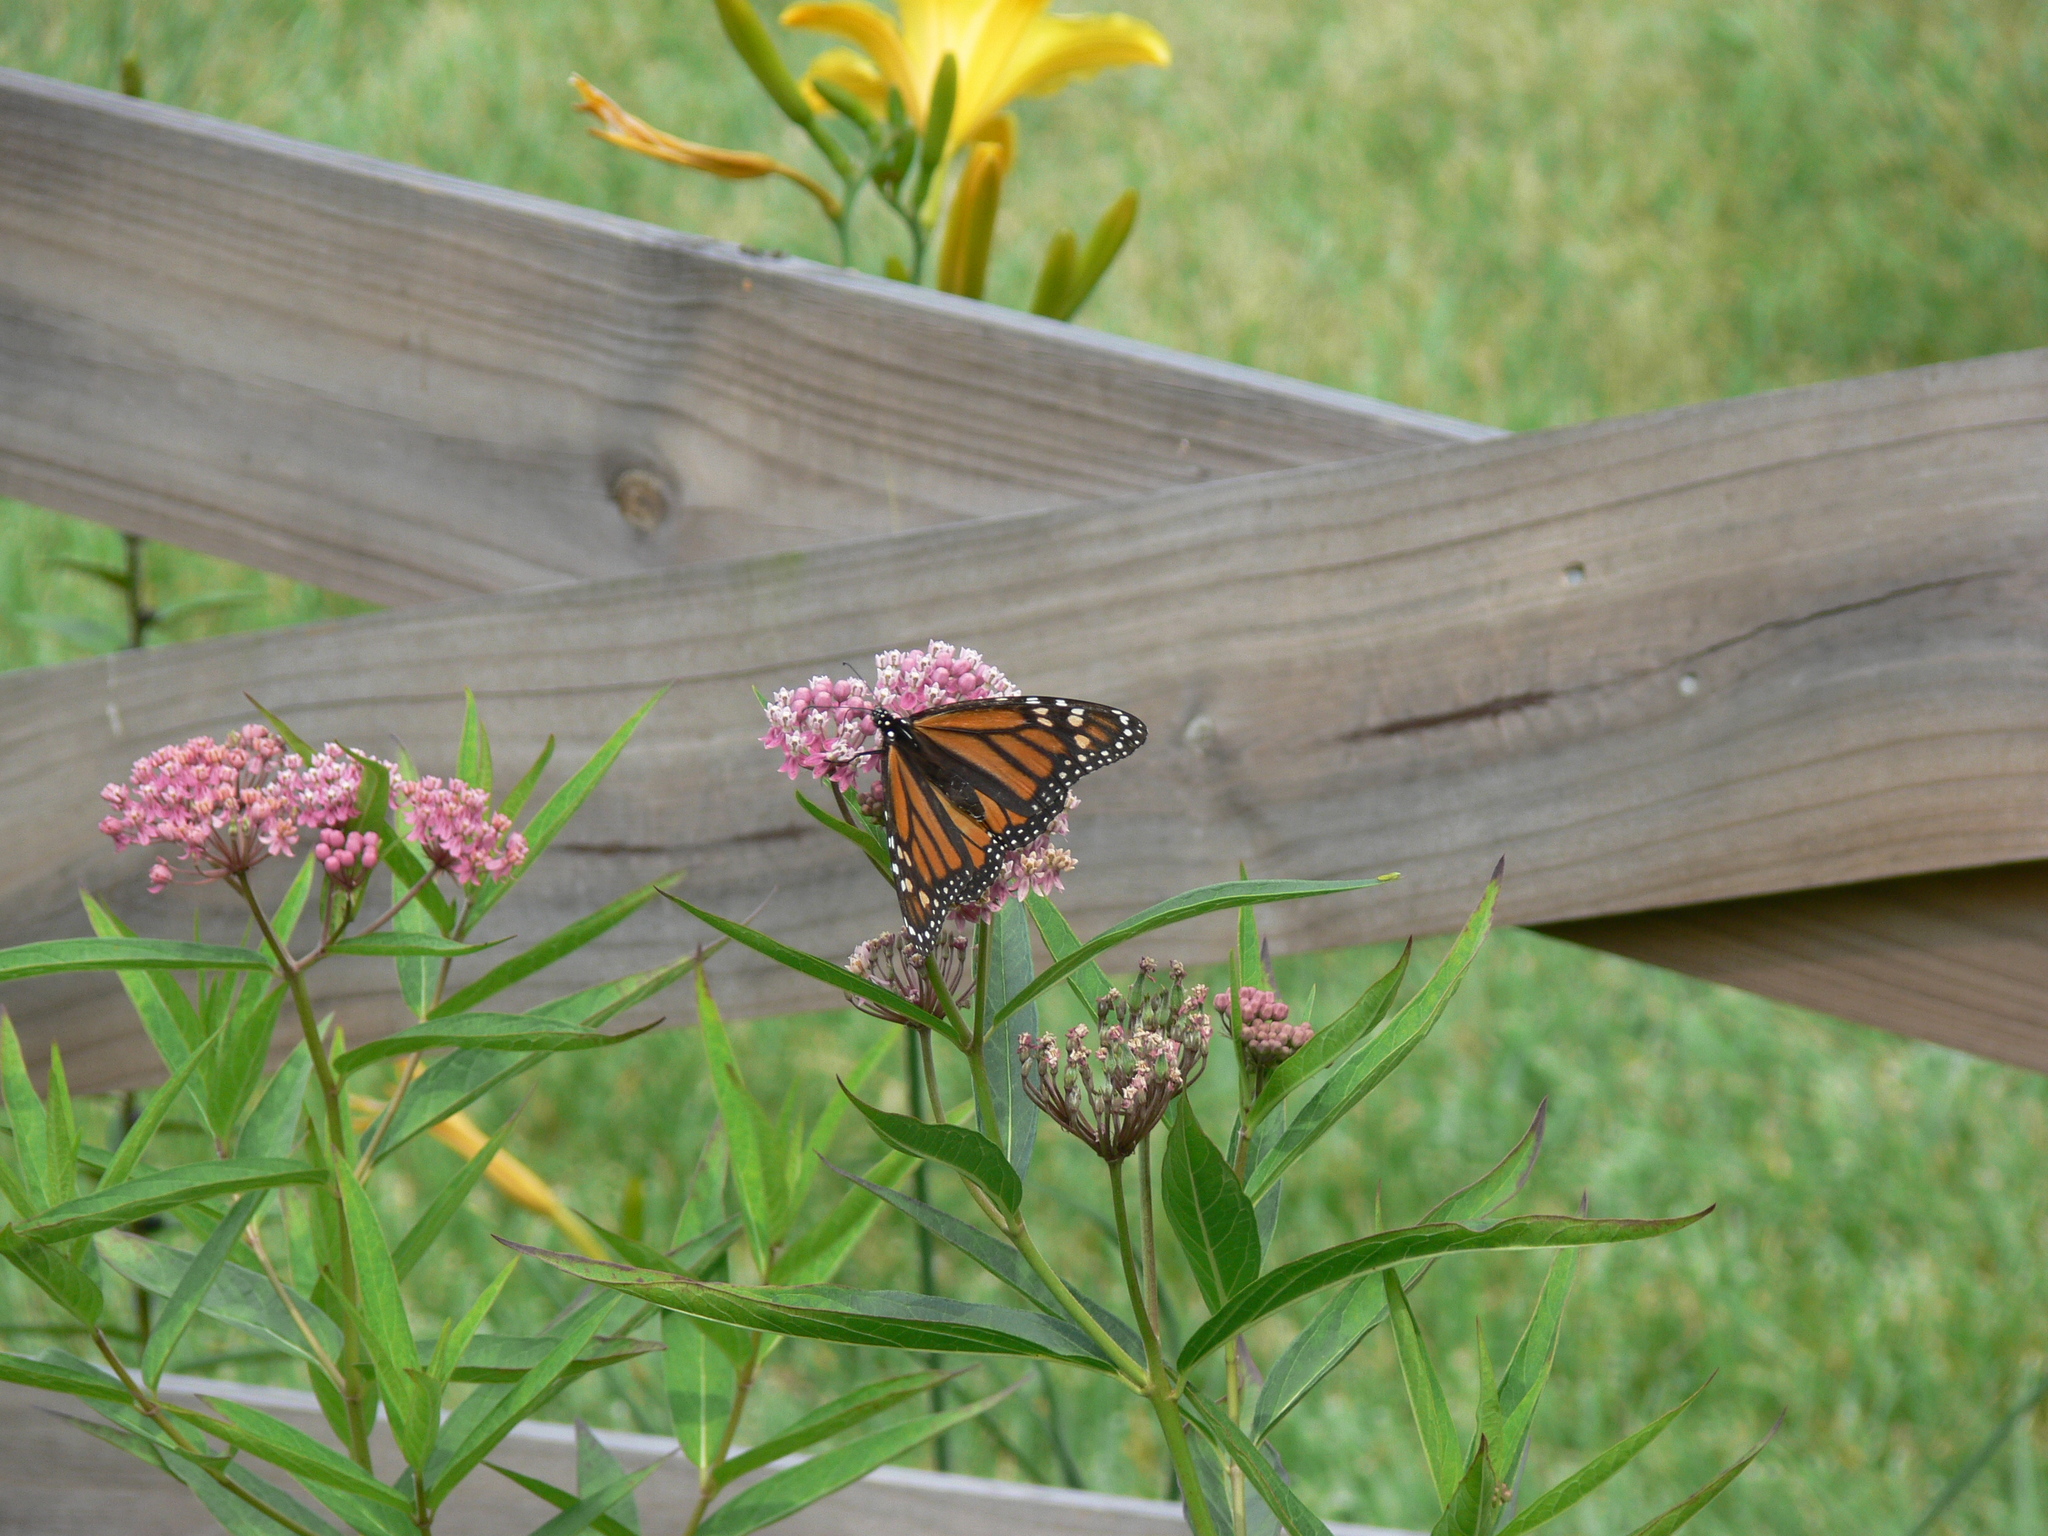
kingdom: Animalia
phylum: Arthropoda
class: Insecta
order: Lepidoptera
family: Nymphalidae
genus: Danaus
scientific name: Danaus plexippus
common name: Monarch
